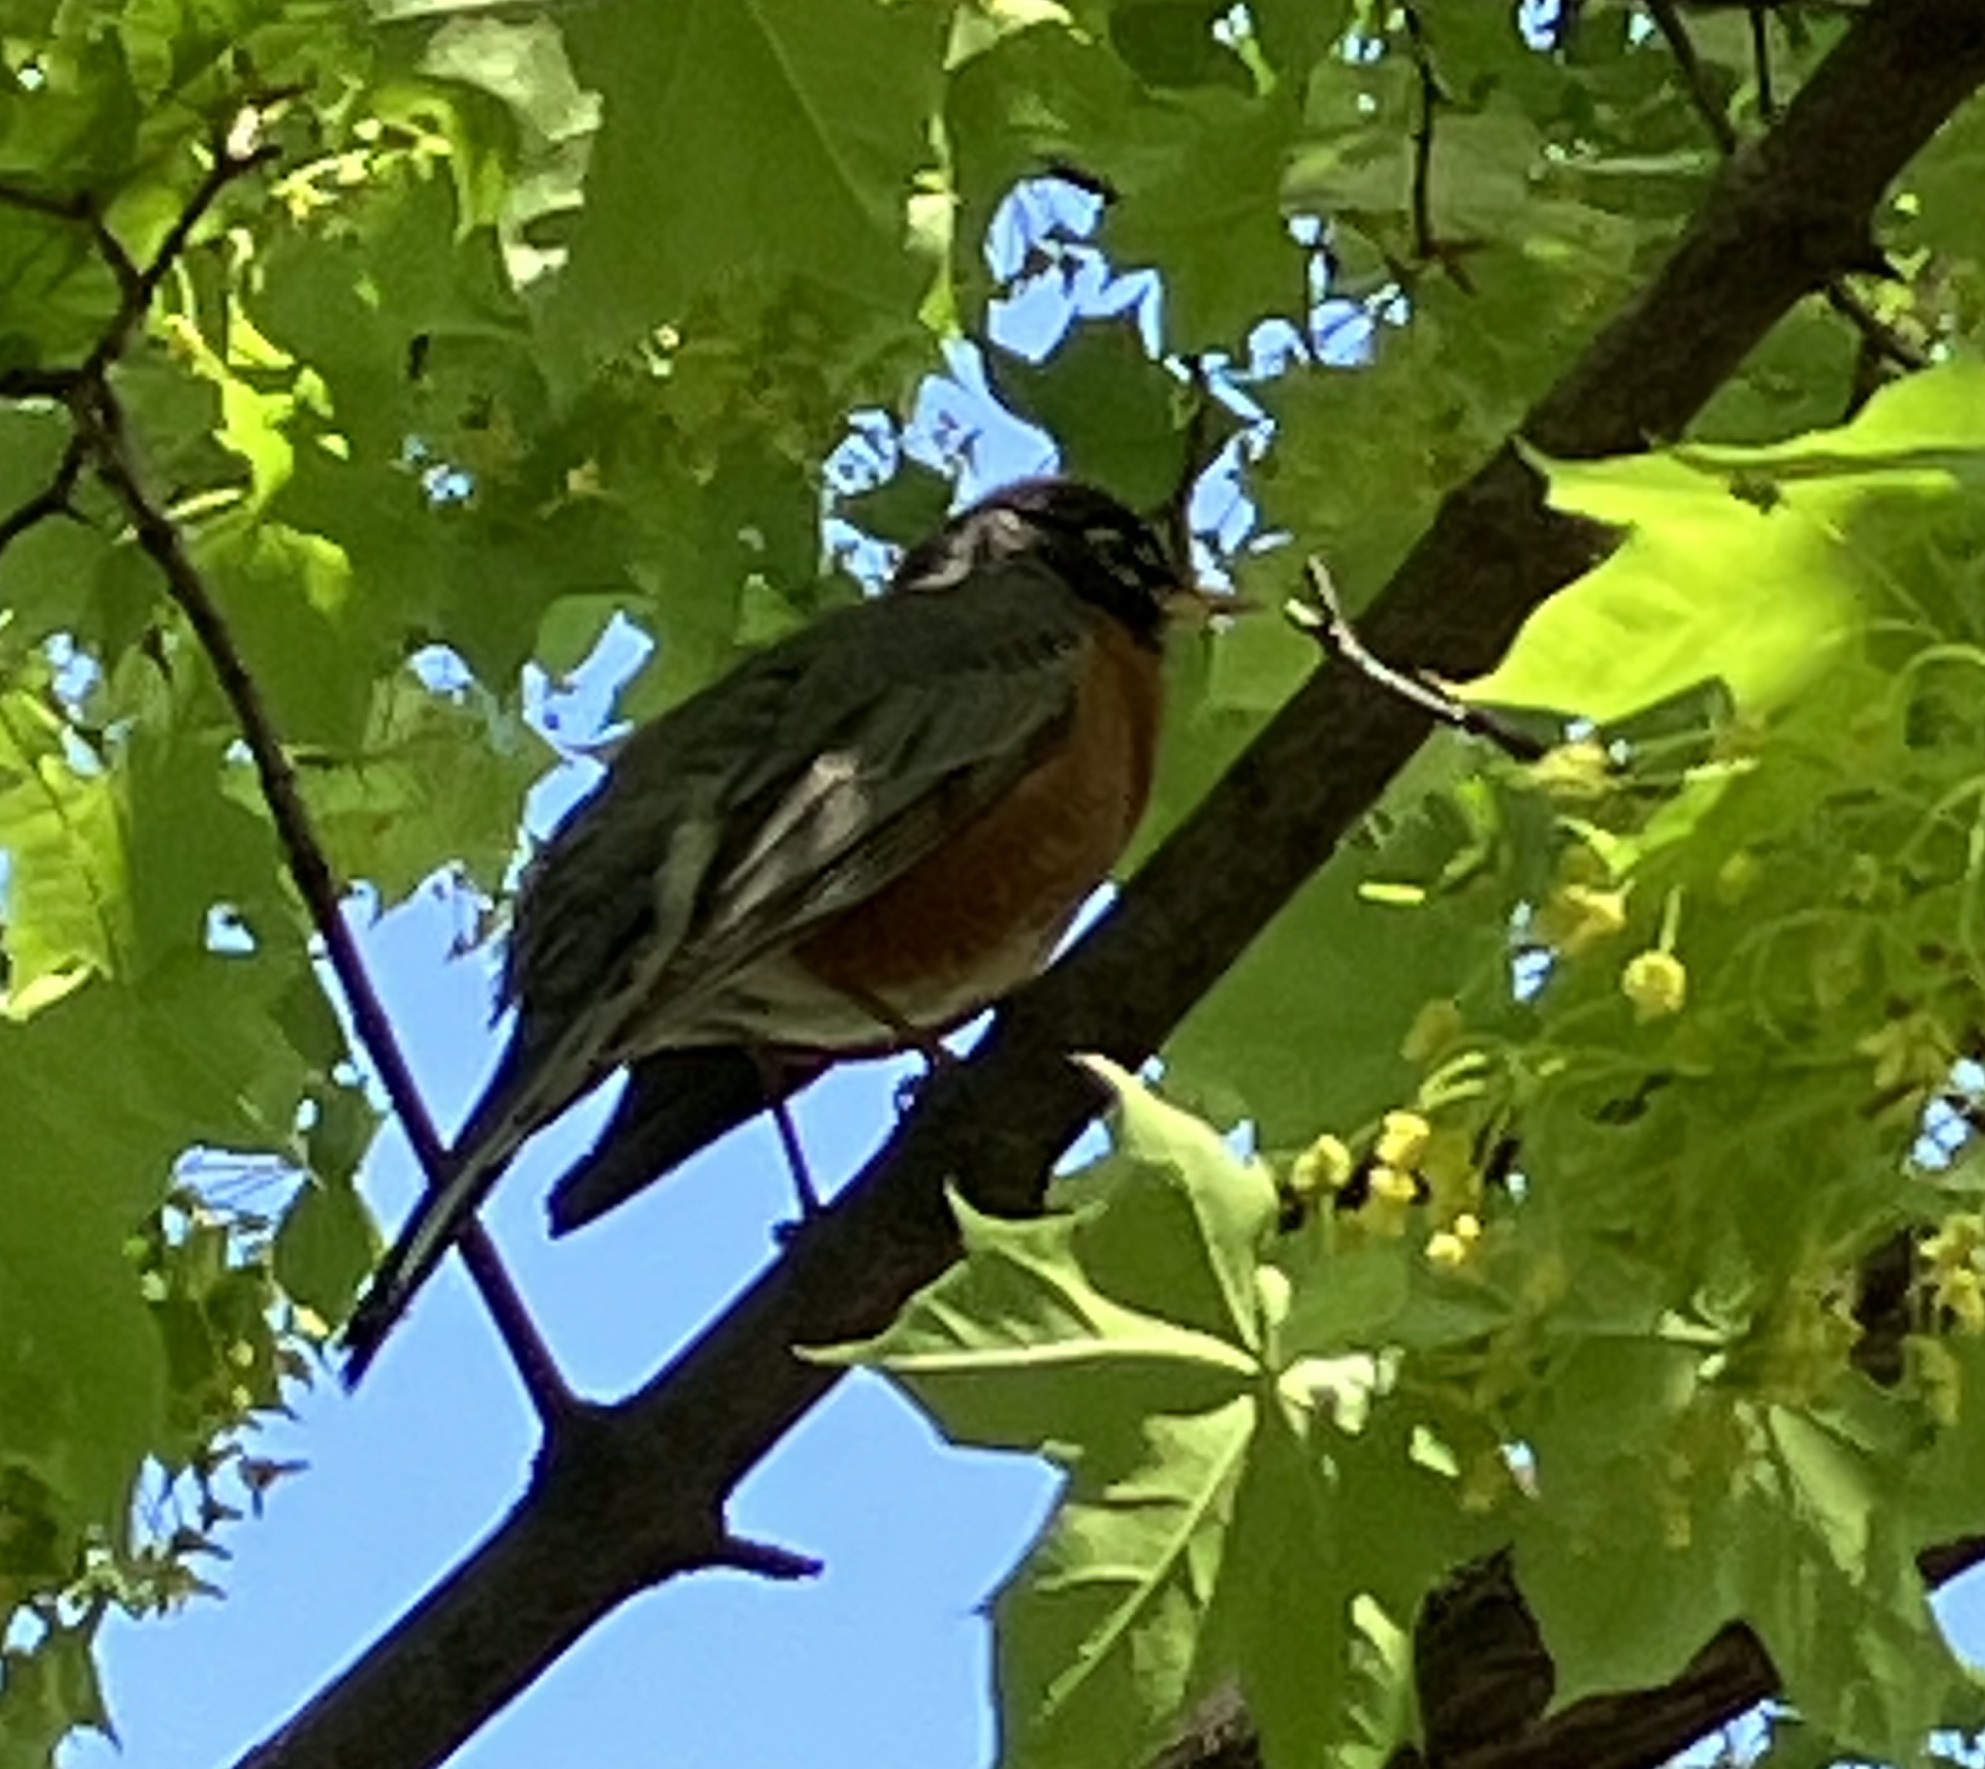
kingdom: Animalia
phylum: Chordata
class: Aves
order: Passeriformes
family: Turdidae
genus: Turdus
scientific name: Turdus migratorius
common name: American robin
